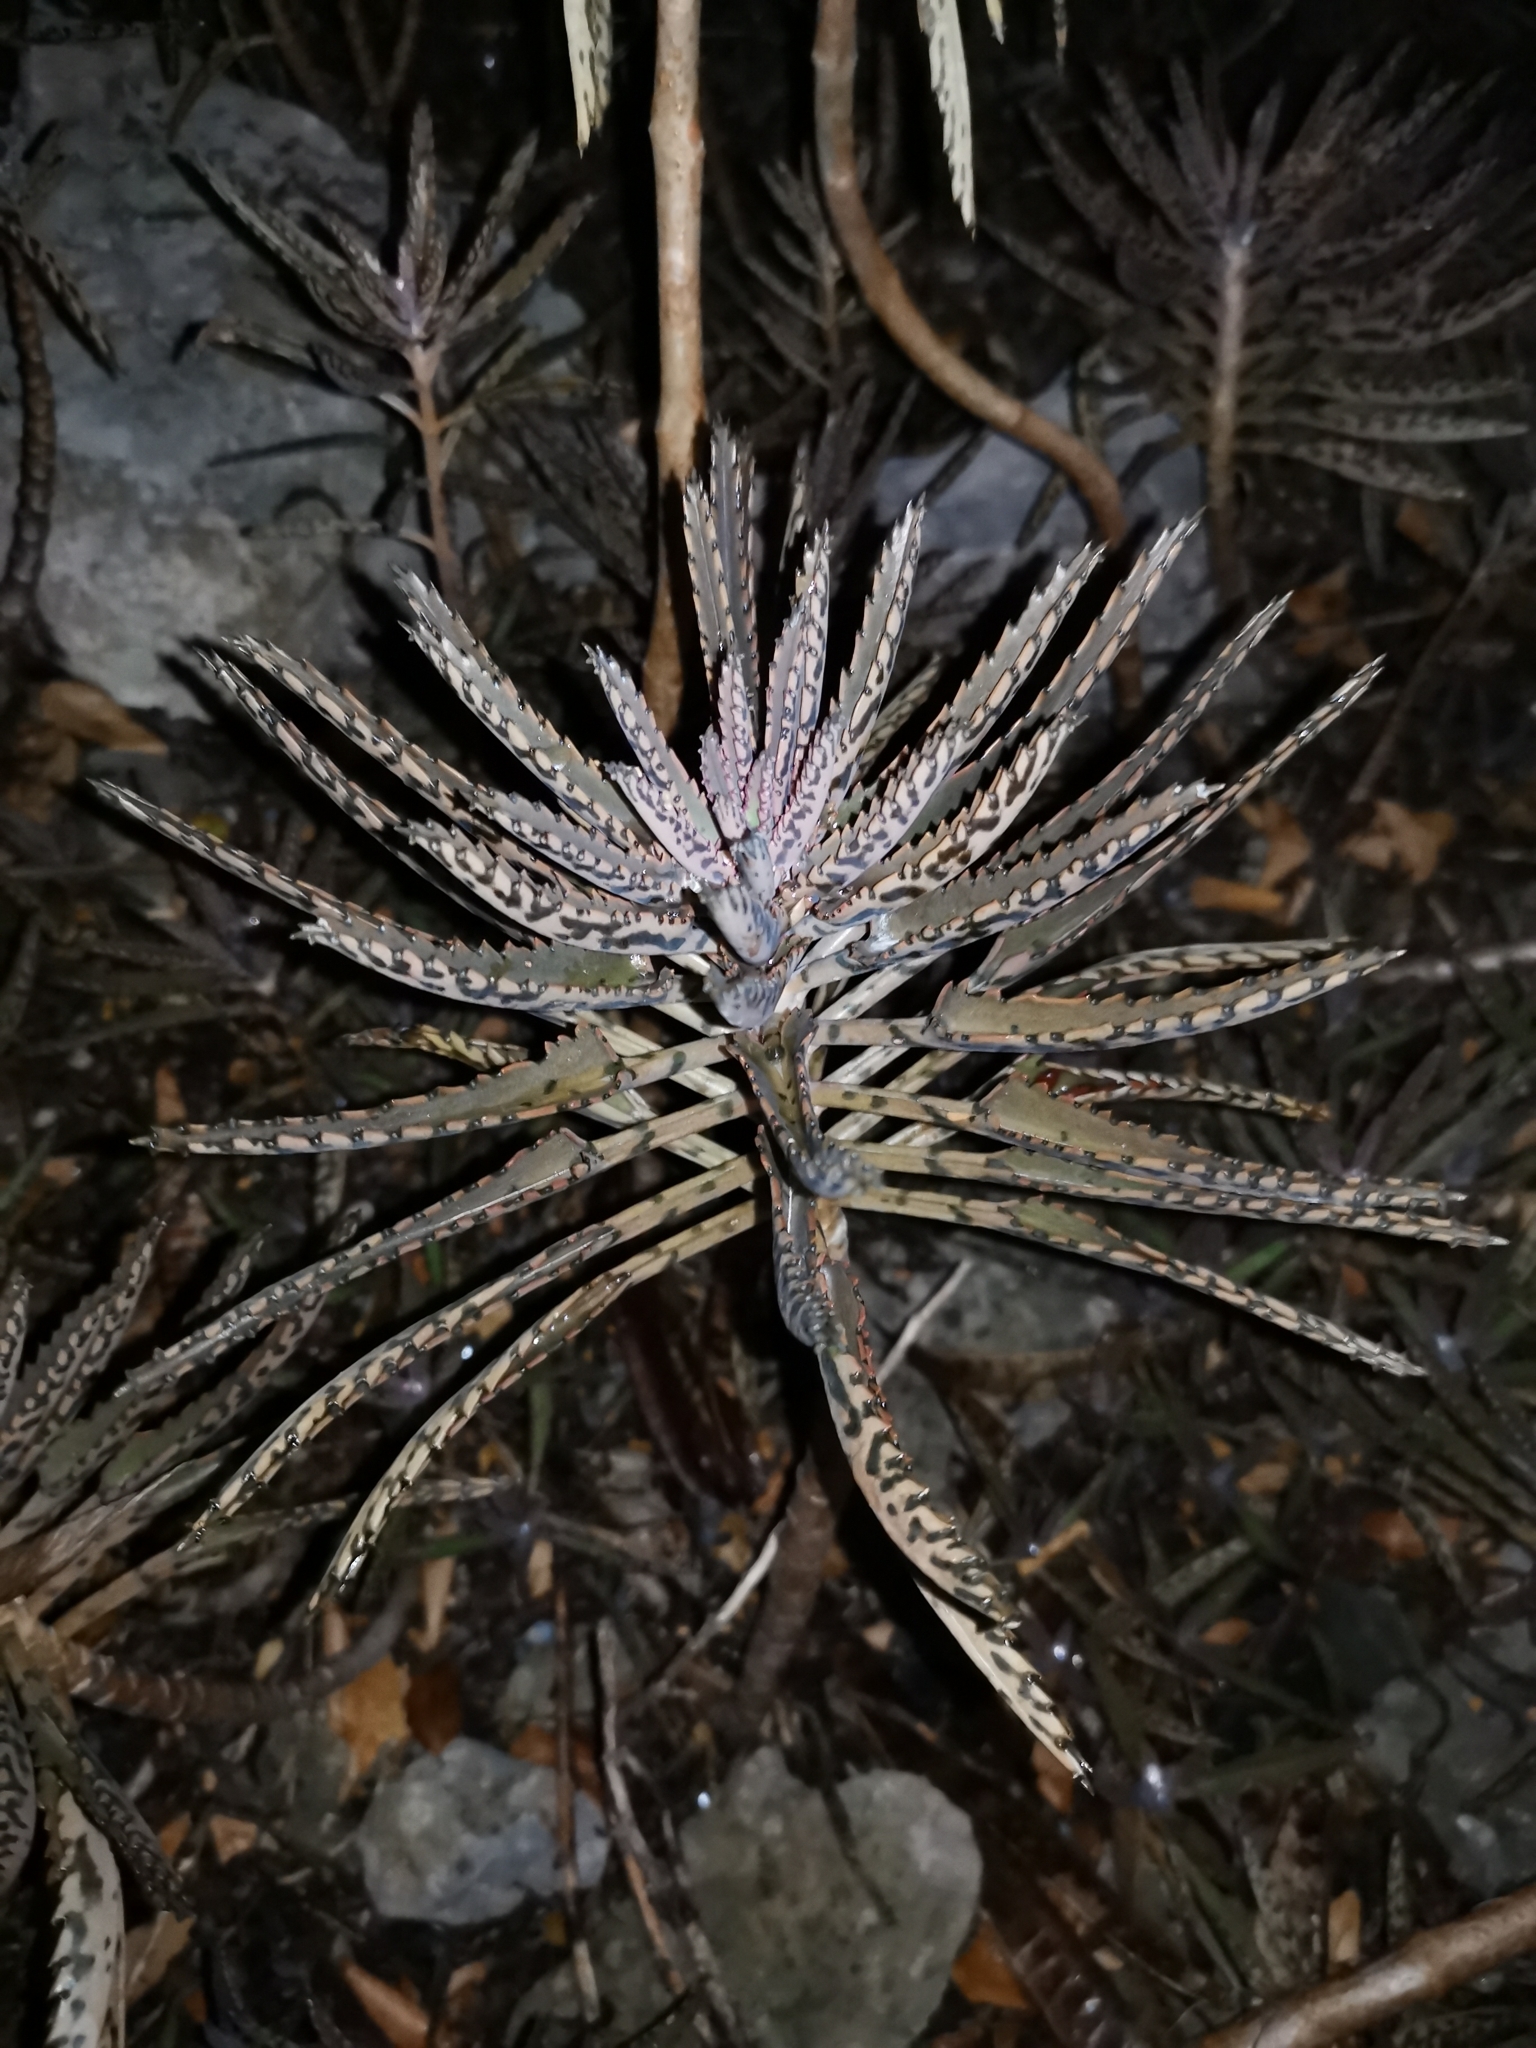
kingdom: Plantae
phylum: Tracheophyta
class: Magnoliopsida
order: Saxifragales
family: Crassulaceae
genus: Kalanchoe
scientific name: Kalanchoe houghtonii
